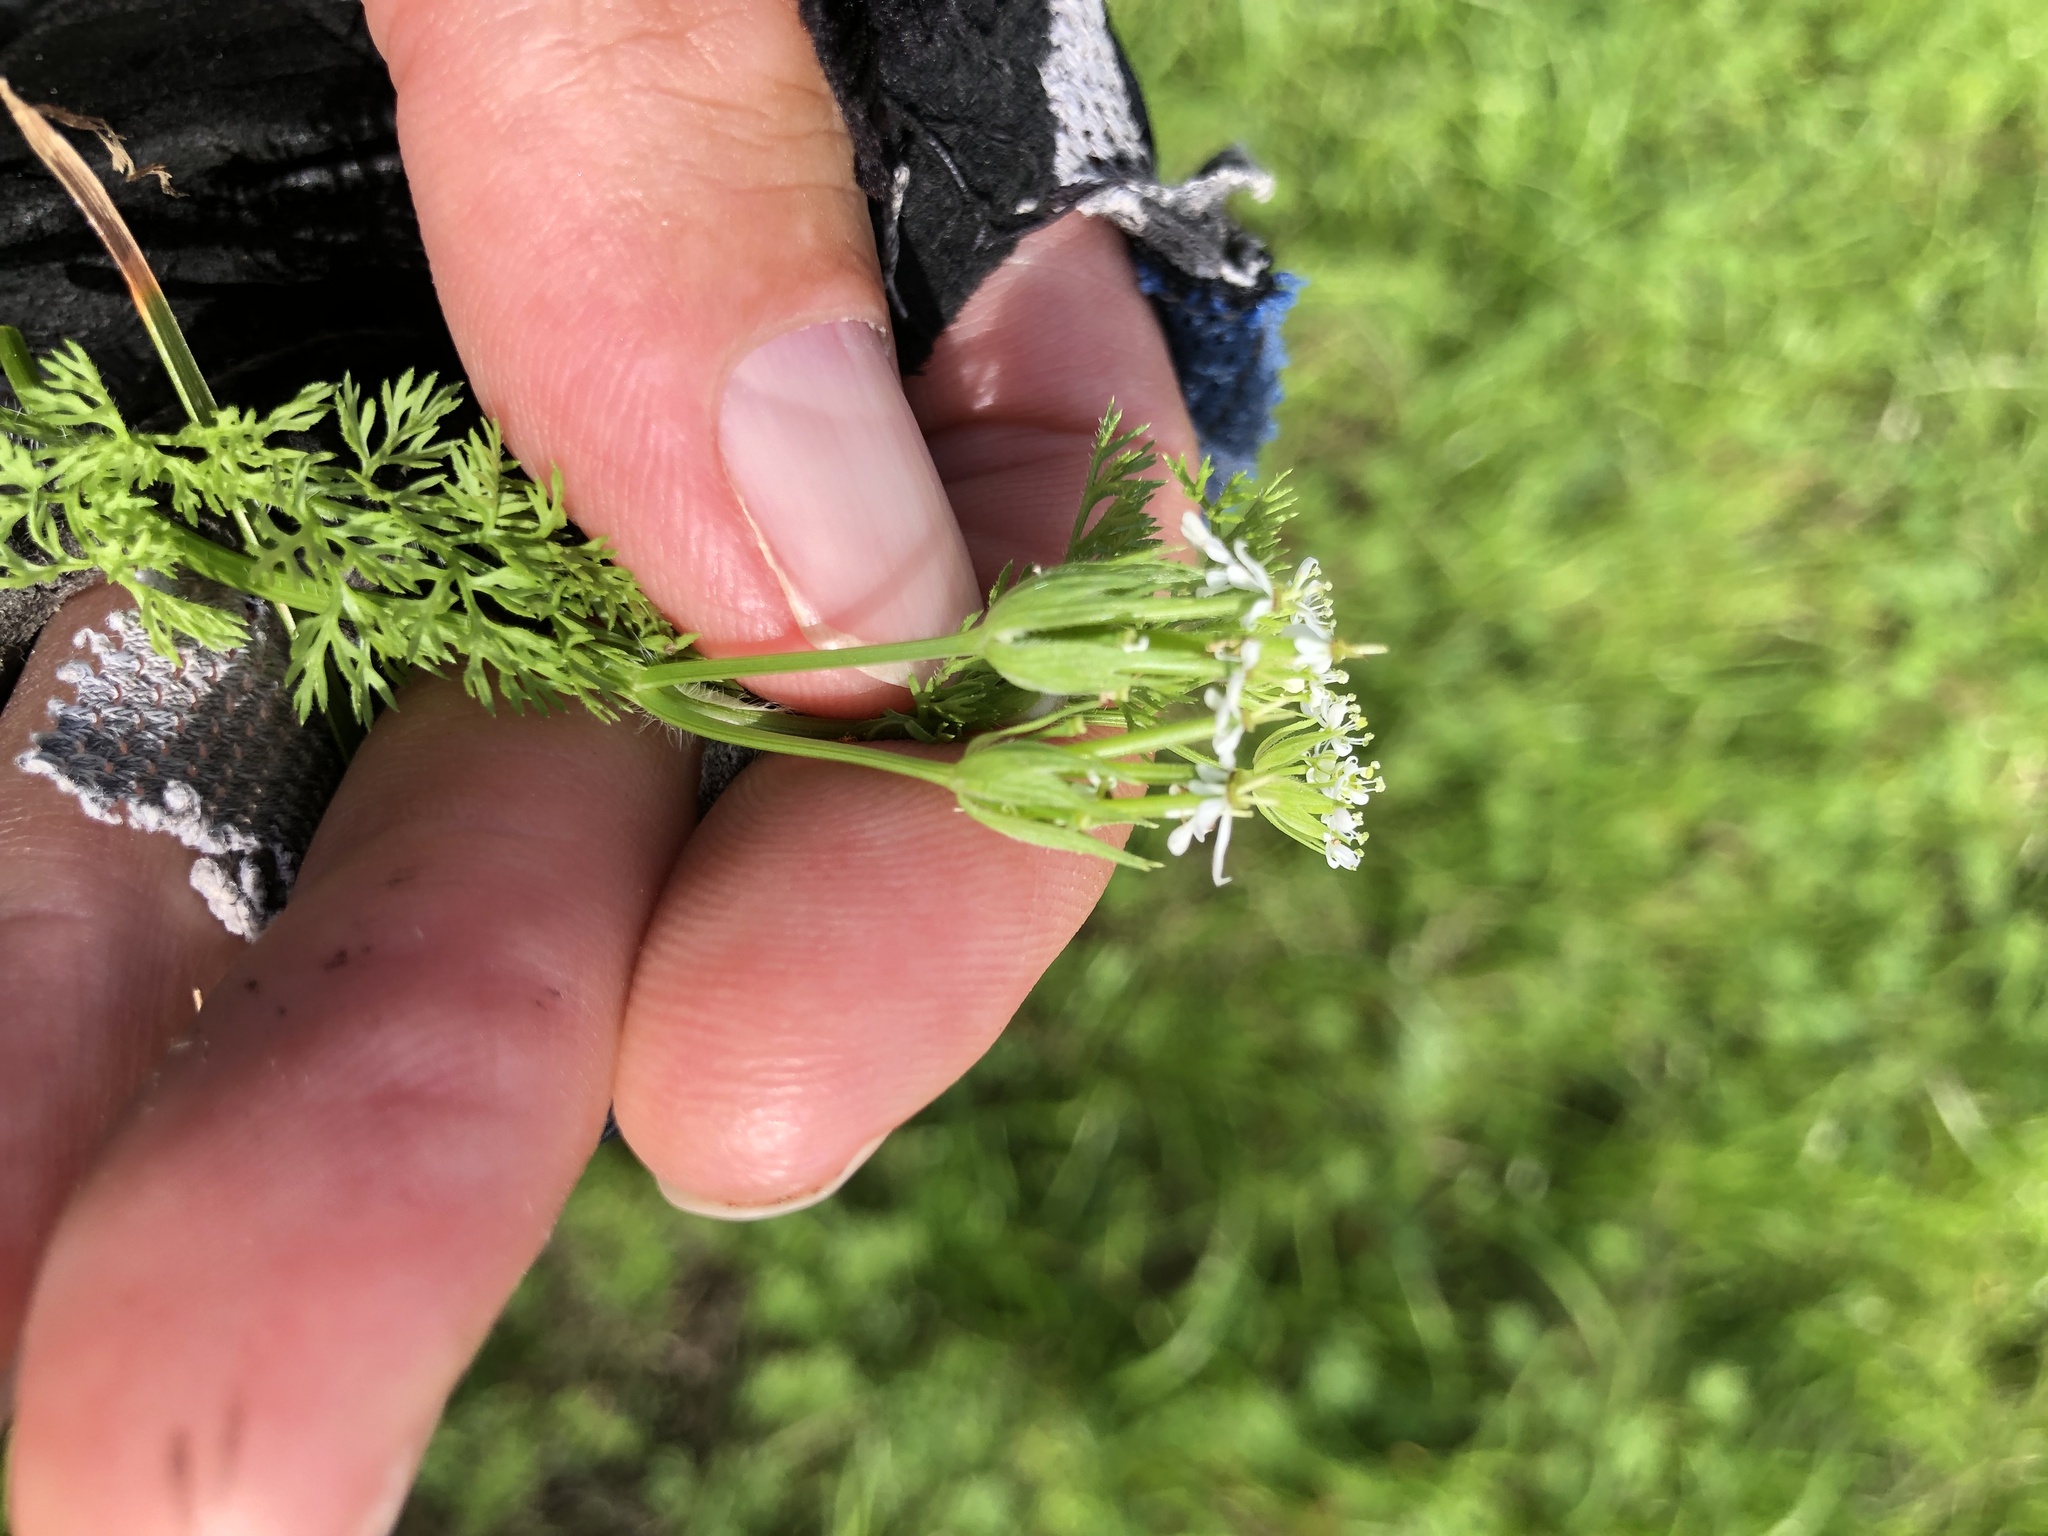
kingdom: Plantae
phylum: Tracheophyta
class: Magnoliopsida
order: Apiales
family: Apiaceae
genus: Scandix
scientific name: Scandix pecten-veneris
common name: Shepherd's-needle
